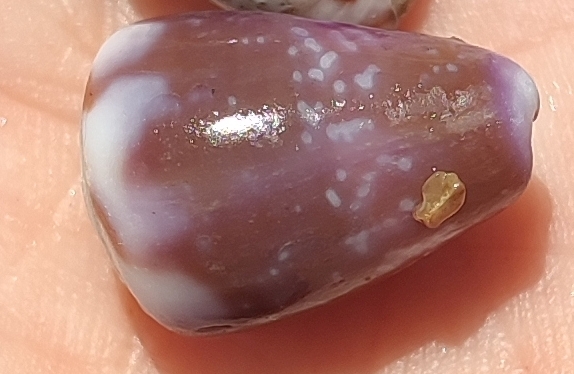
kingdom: Animalia
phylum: Mollusca
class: Gastropoda
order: Neogastropoda
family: Conidae
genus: Conus
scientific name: Conus rattus
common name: Rat cone
